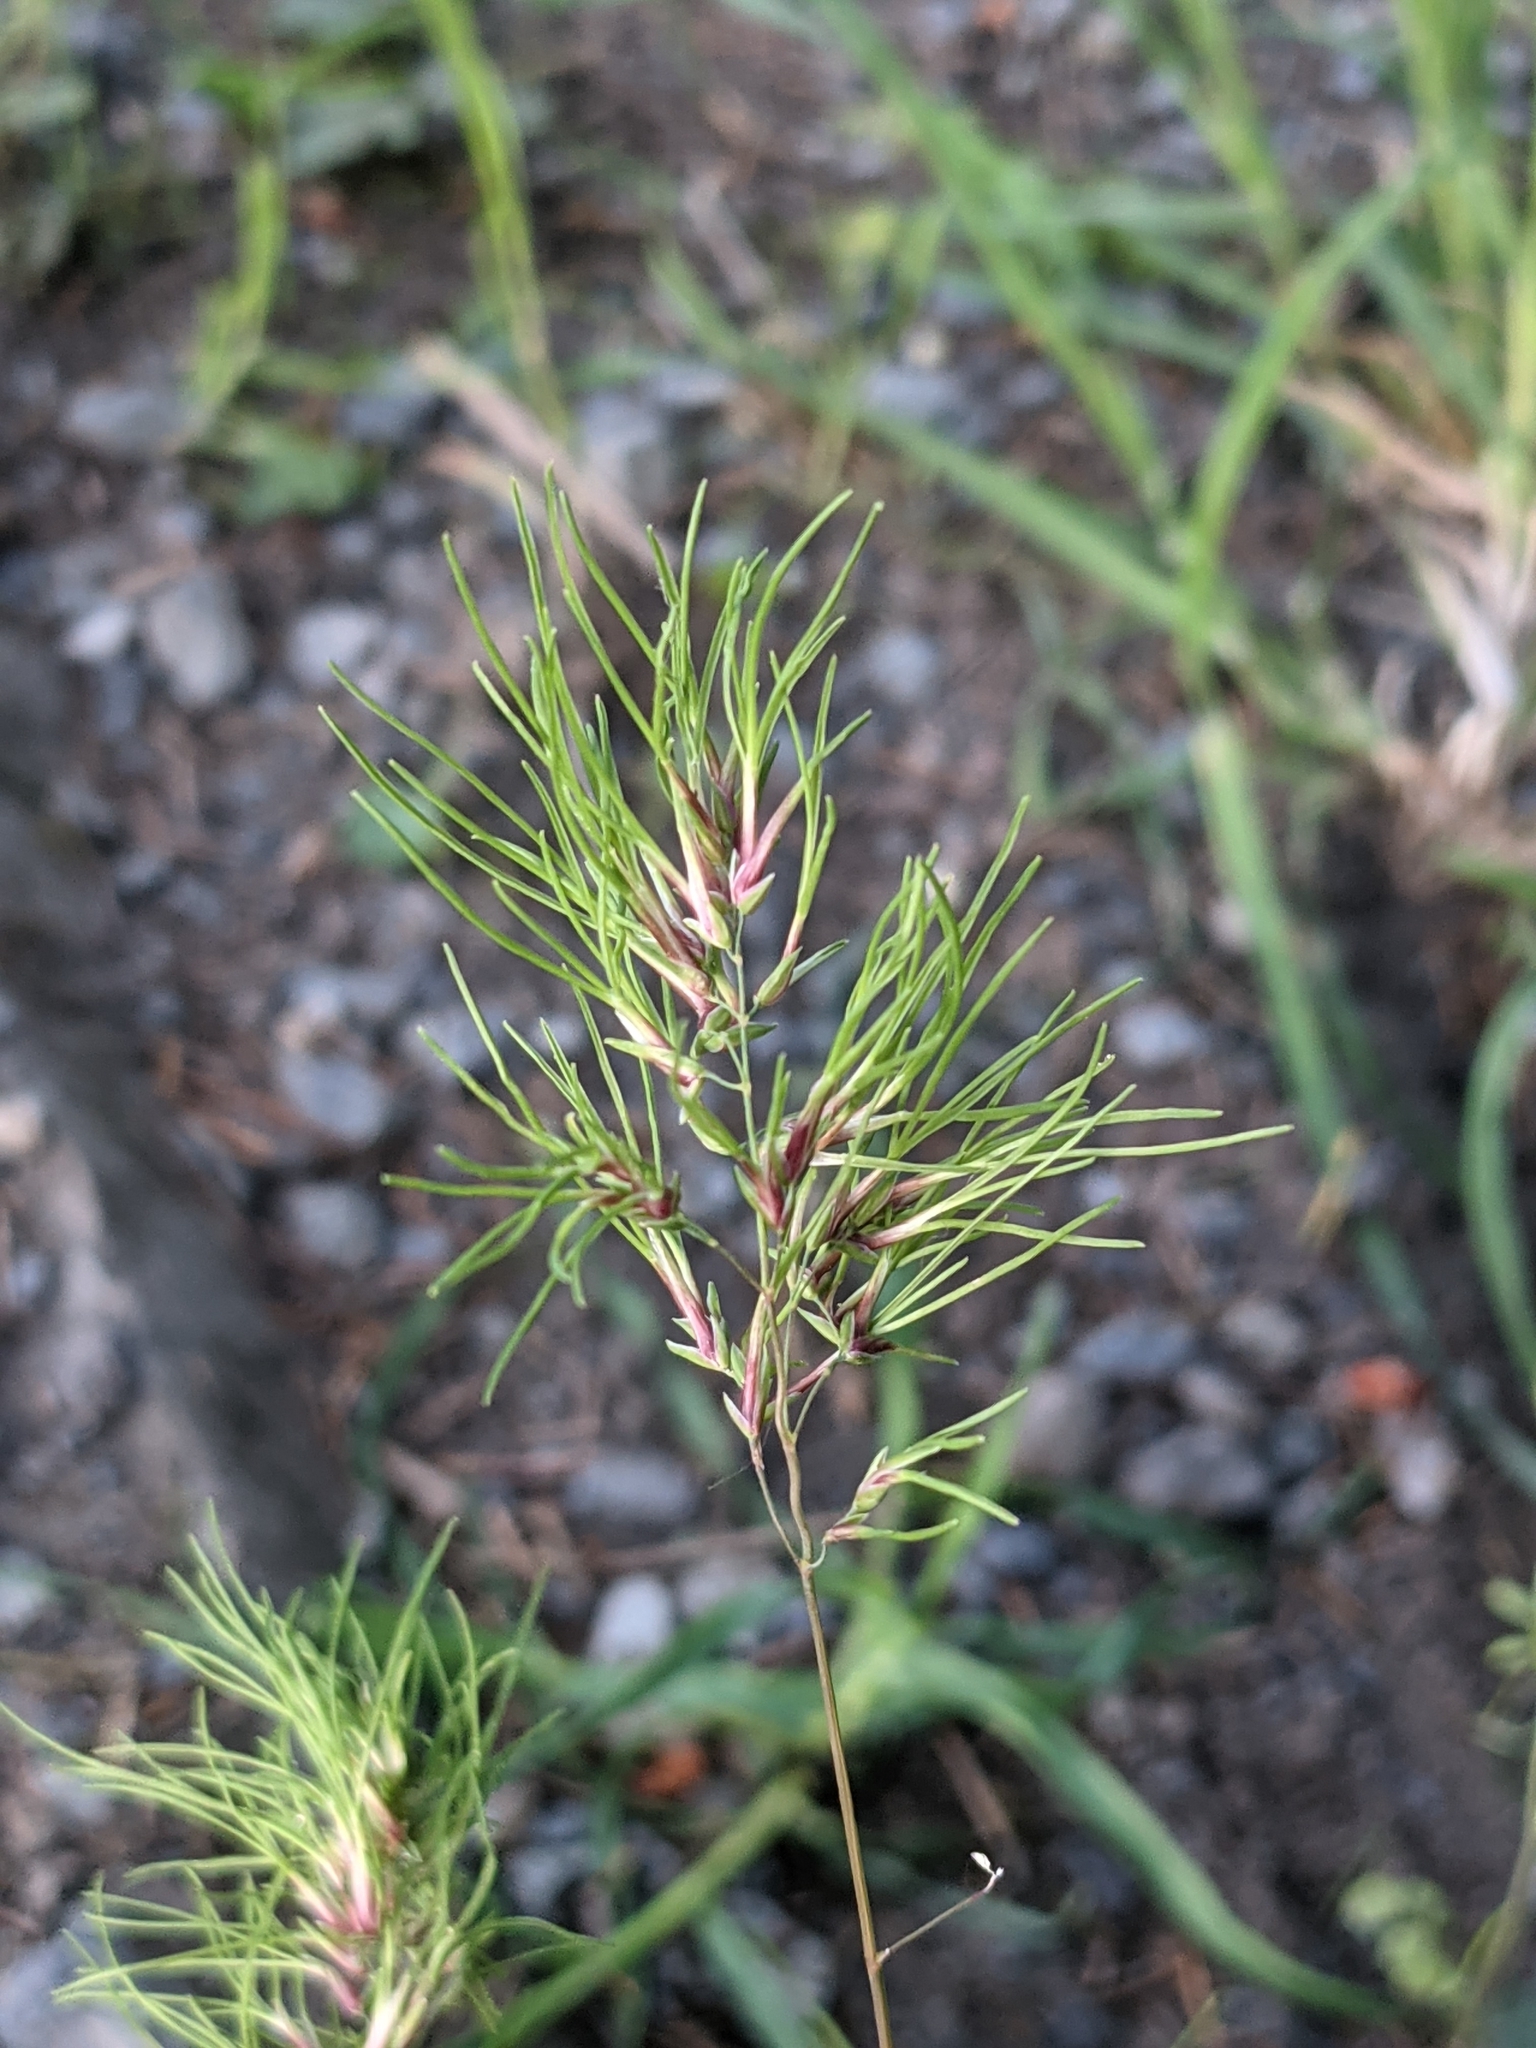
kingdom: Plantae
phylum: Tracheophyta
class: Liliopsida
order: Poales
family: Poaceae
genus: Poa
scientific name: Poa bulbosa
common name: Bulbous bluegrass
